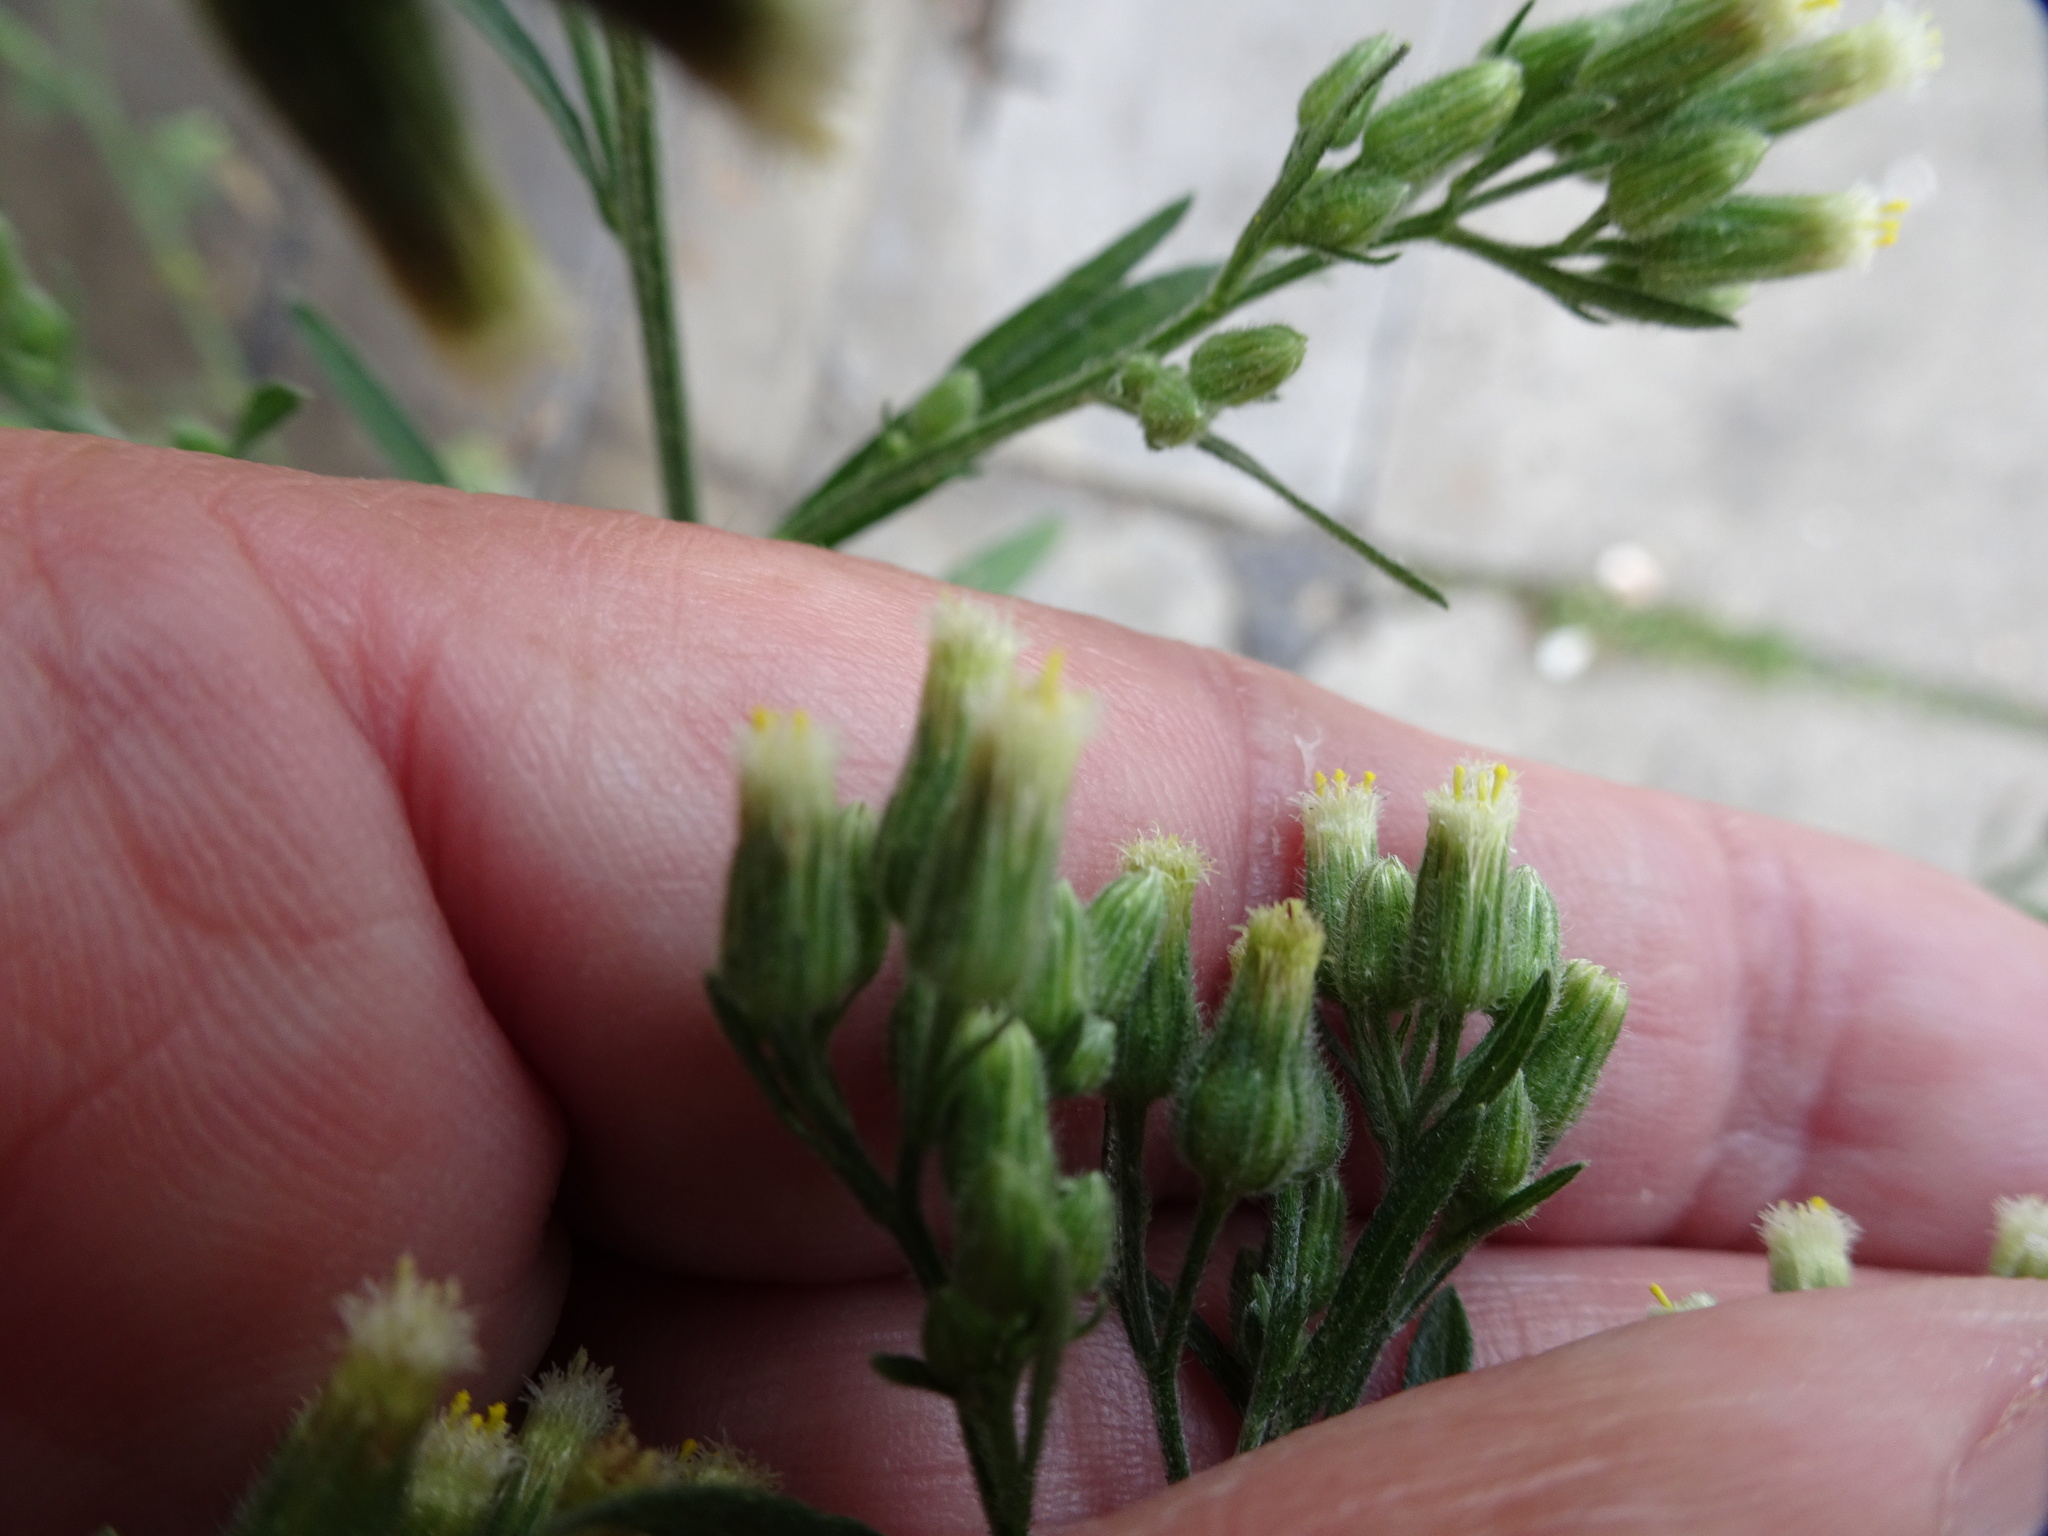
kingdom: Plantae
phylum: Tracheophyta
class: Magnoliopsida
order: Asterales
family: Asteraceae
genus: Erigeron
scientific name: Erigeron sumatrensis
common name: Daisy
